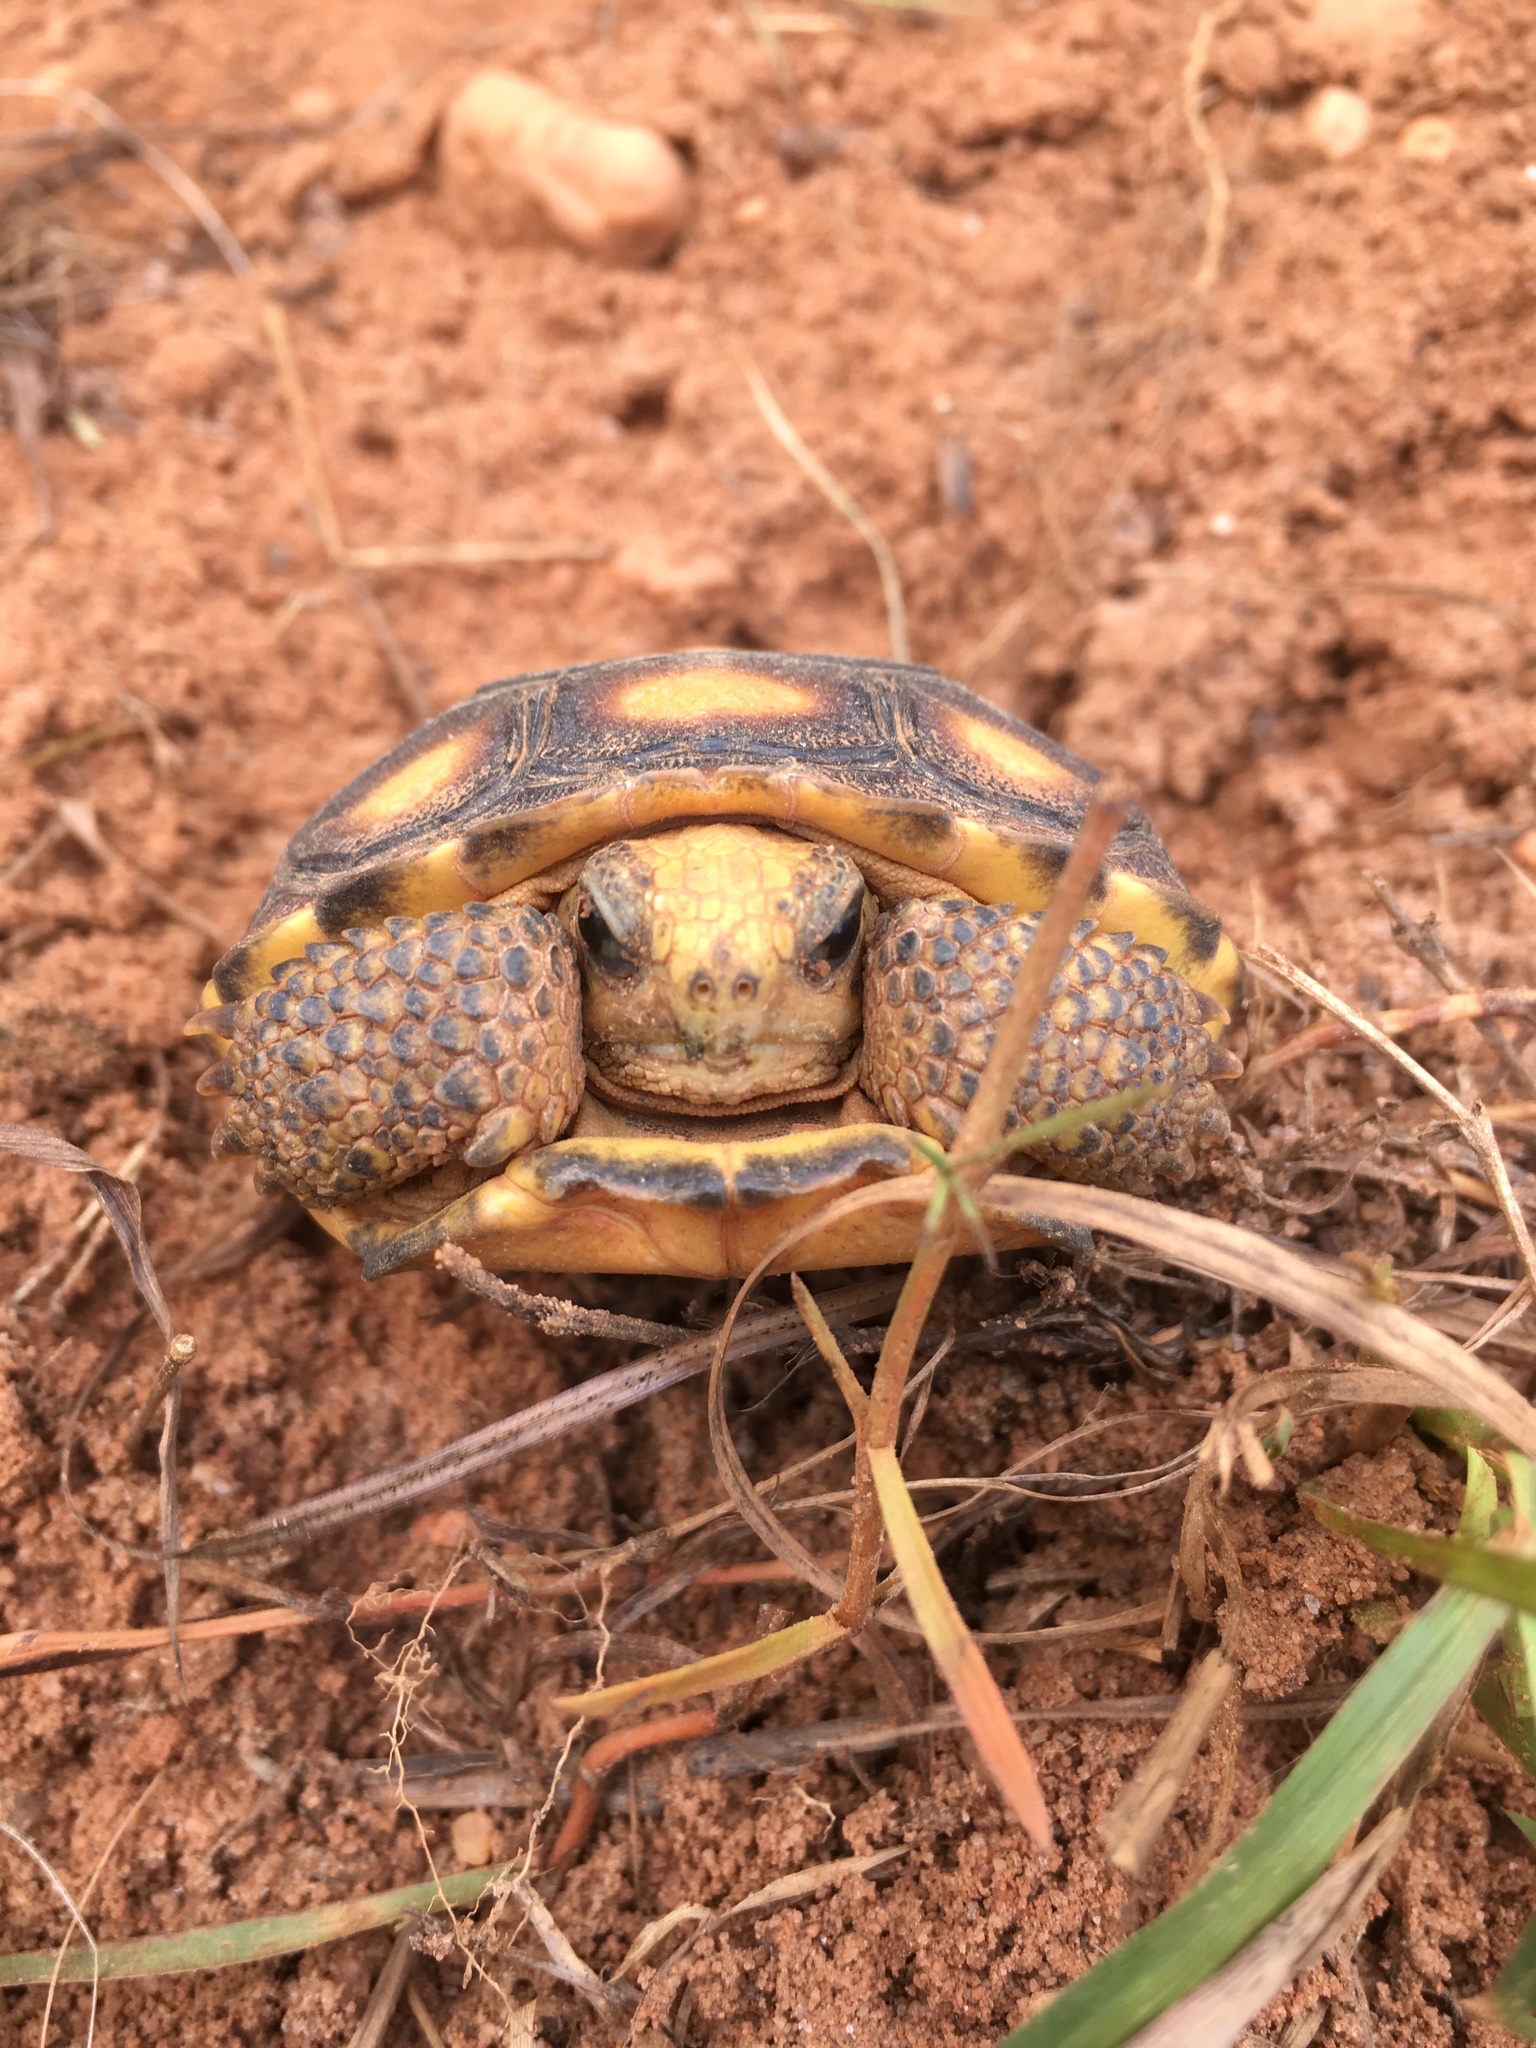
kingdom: Animalia
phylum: Chordata
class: Testudines
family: Testudinidae
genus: Gopherus
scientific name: Gopherus polyphemus
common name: Florida gopher tortoise
